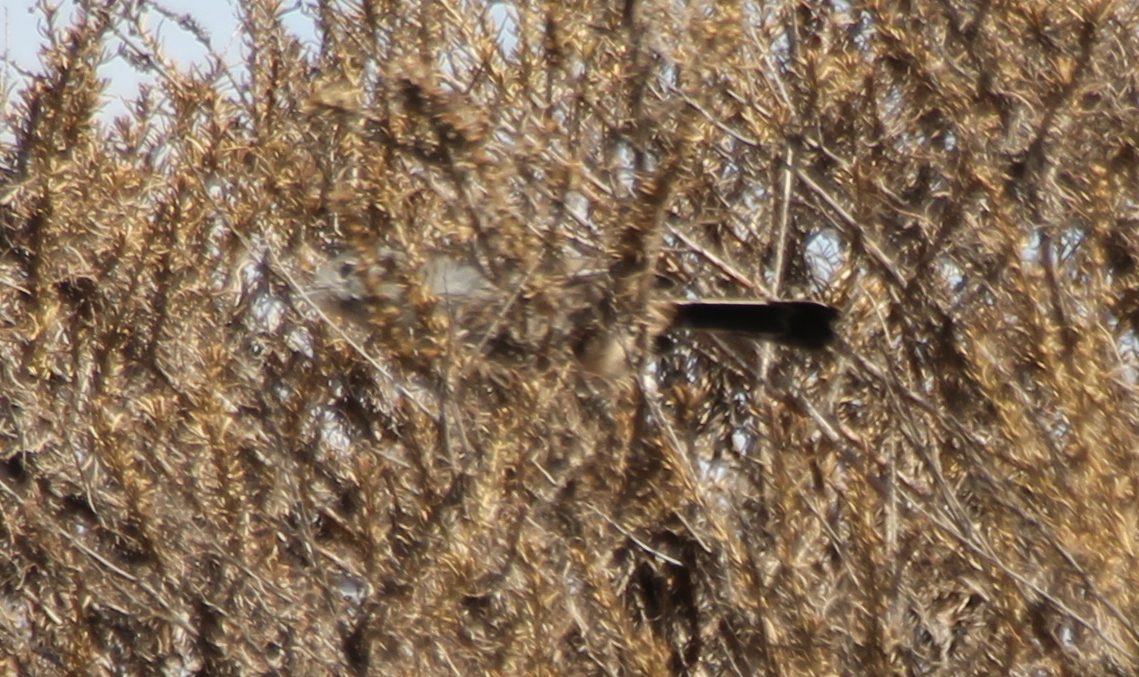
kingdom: Animalia
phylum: Chordata
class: Aves
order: Passeriformes
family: Polioptilidae
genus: Polioptila
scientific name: Polioptila californica
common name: California gnatcatcher
